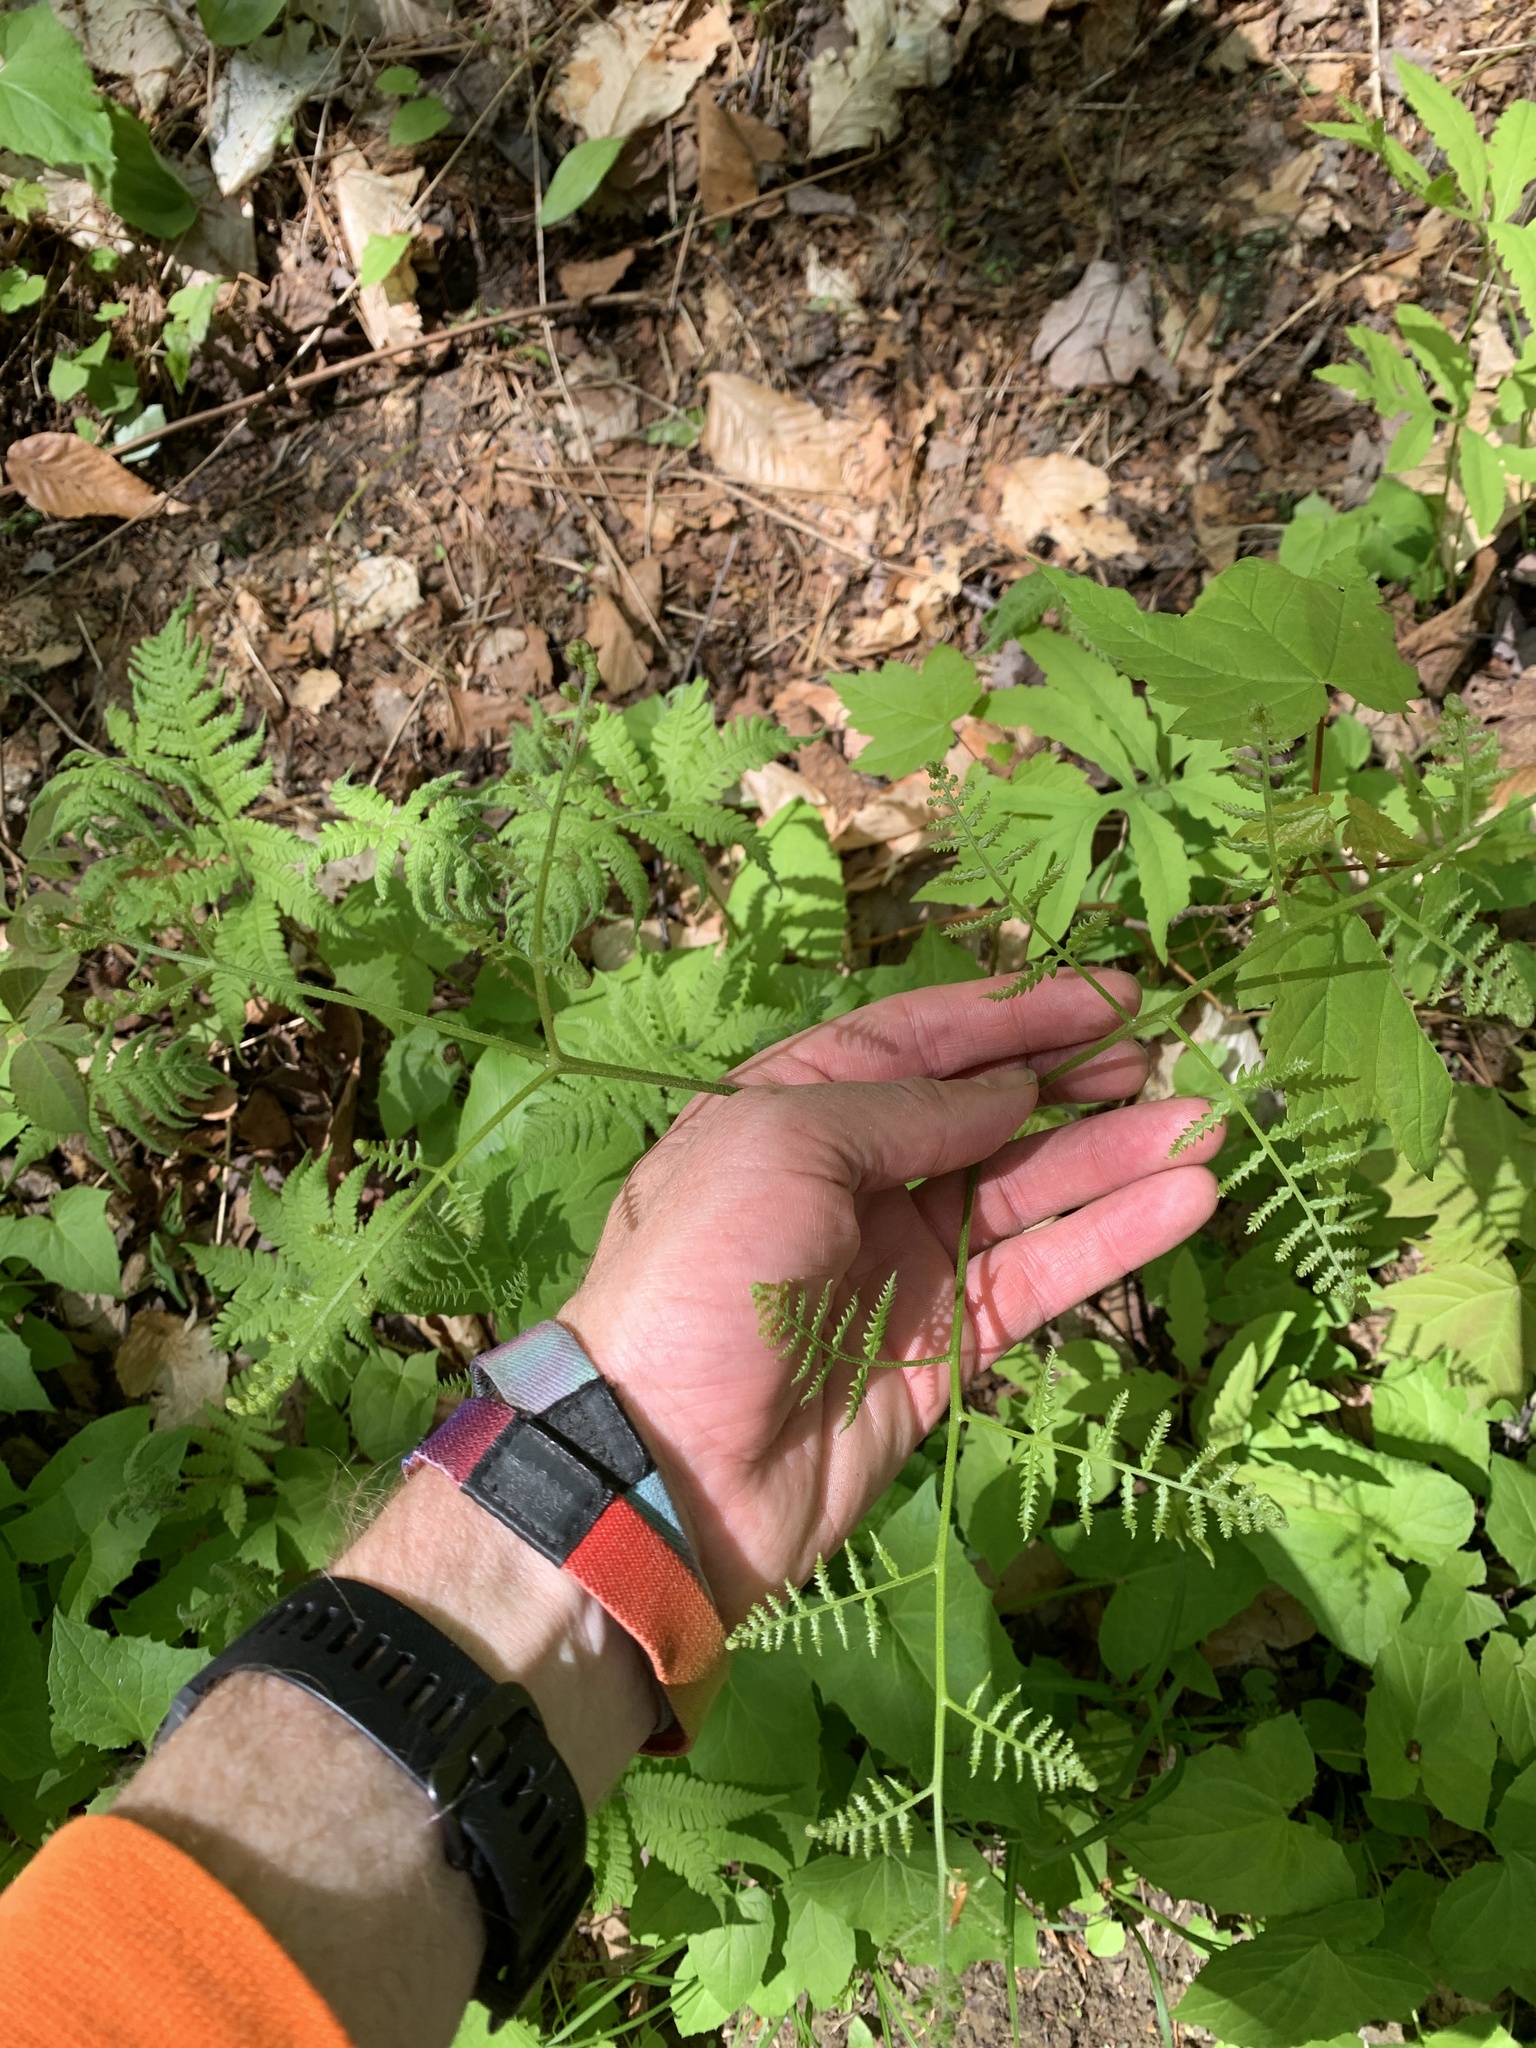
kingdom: Plantae
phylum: Tracheophyta
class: Polypodiopsida
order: Polypodiales
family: Dennstaedtiaceae
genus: Pteridium
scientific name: Pteridium aquilinum
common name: Bracken
